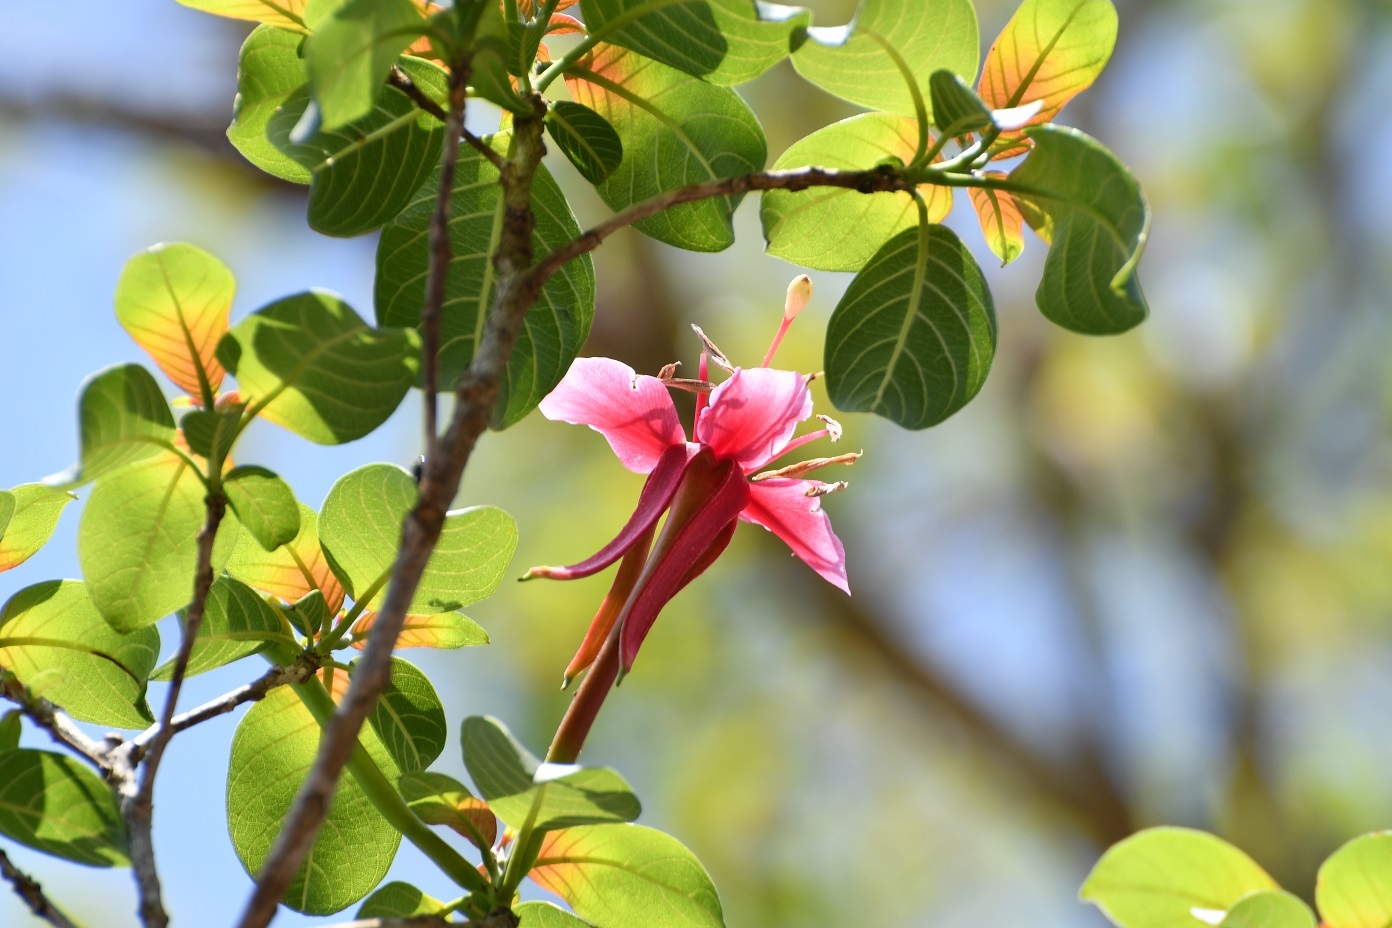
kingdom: Plantae
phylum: Tracheophyta
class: Magnoliopsida
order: Myrtales
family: Onagraceae
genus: Hauya
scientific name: Hauya elegans
